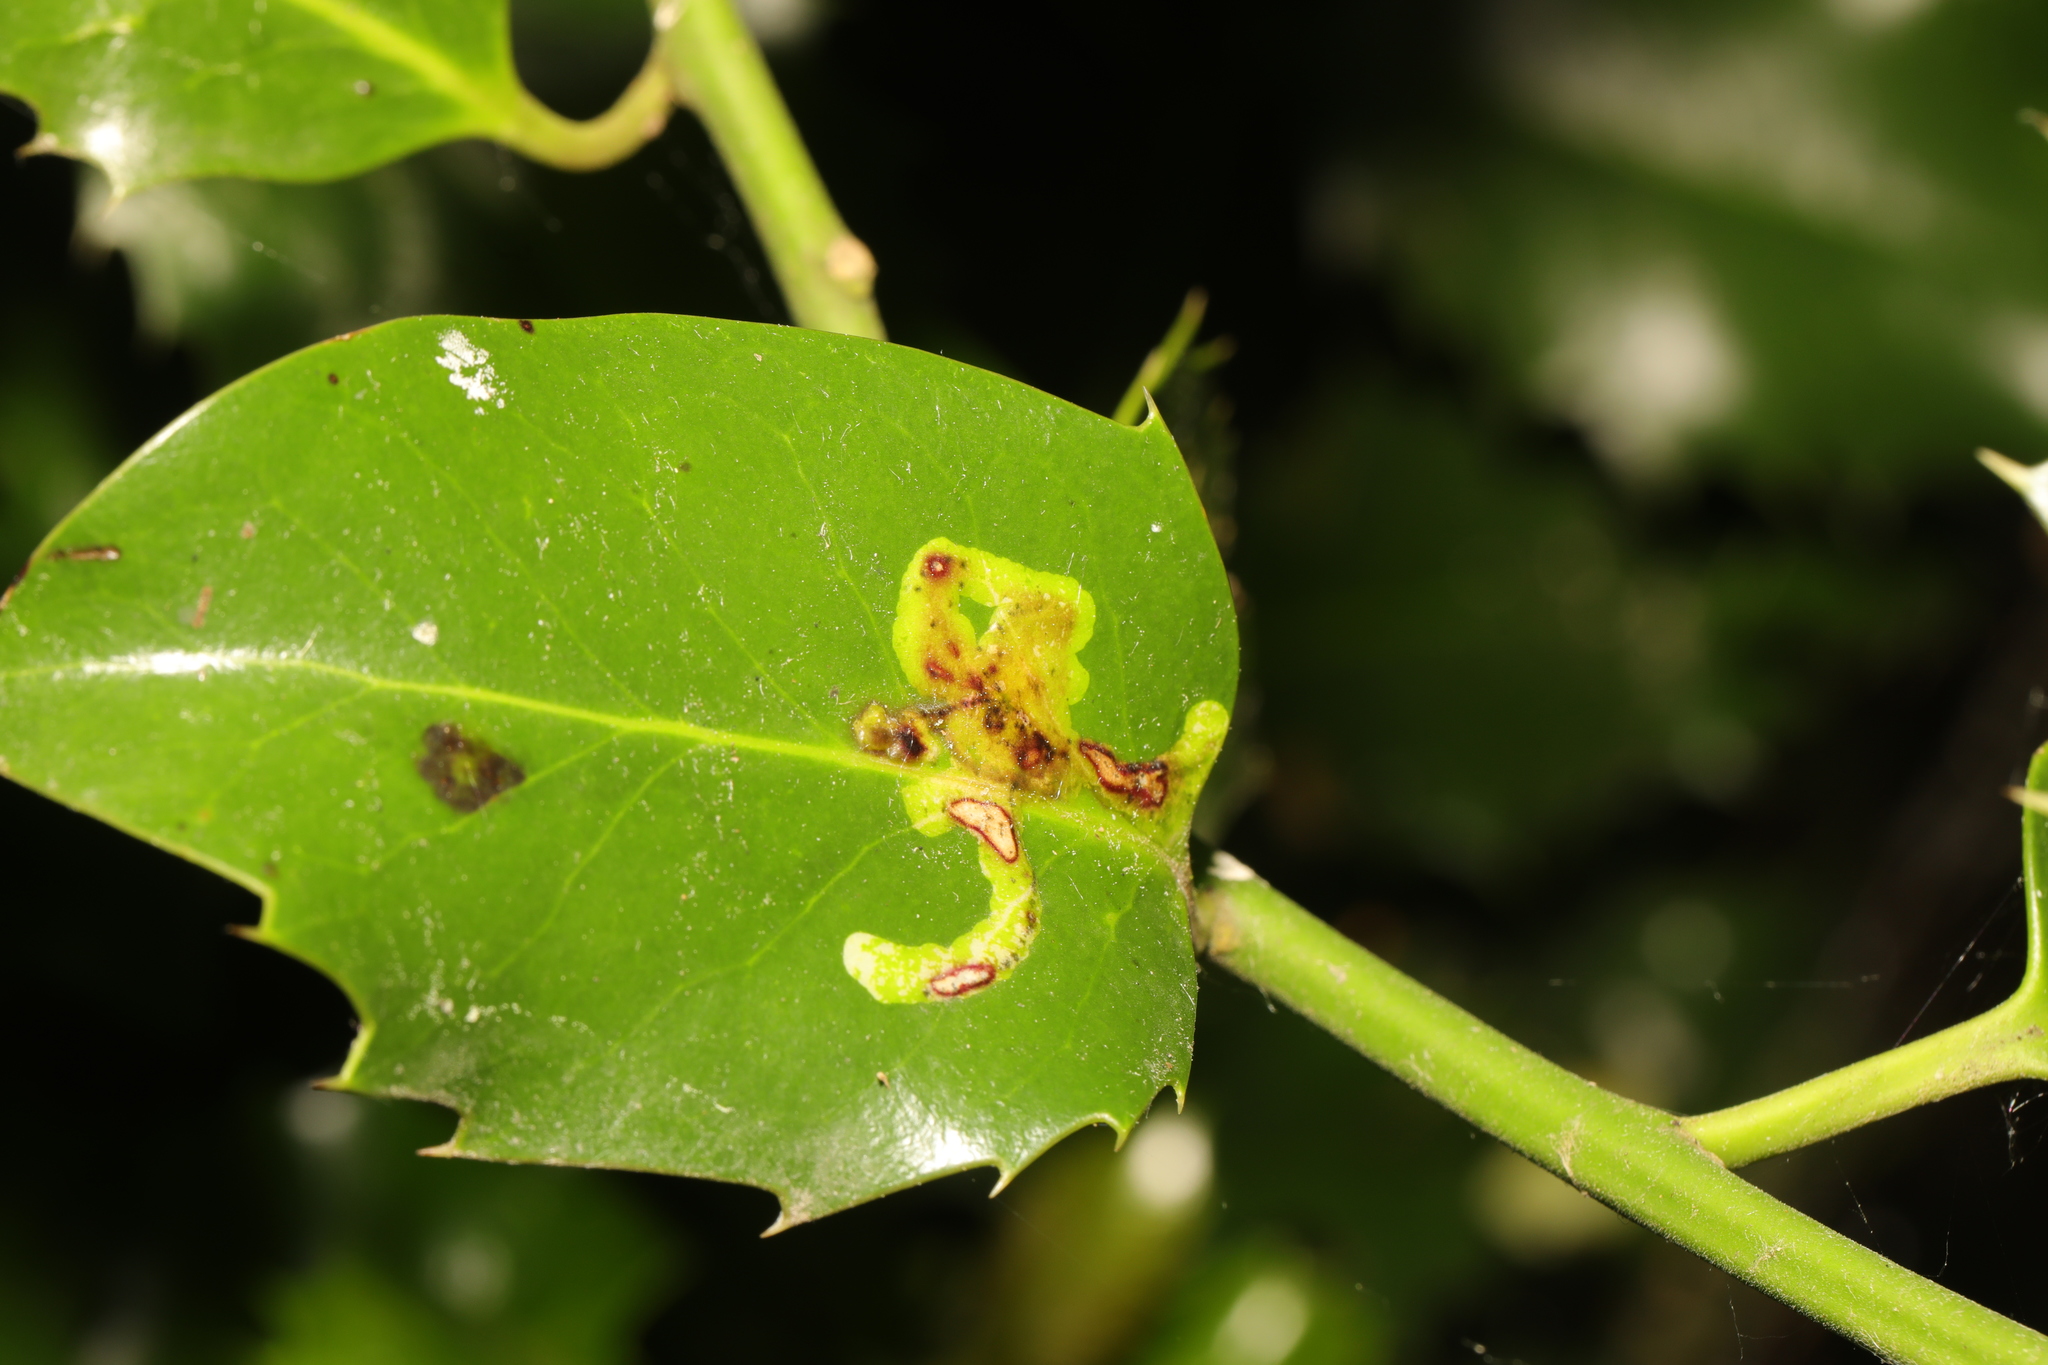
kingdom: Animalia
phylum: Arthropoda
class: Insecta
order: Diptera
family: Agromyzidae
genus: Phytomyza
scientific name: Phytomyza ilicis
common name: Holly leafminer
